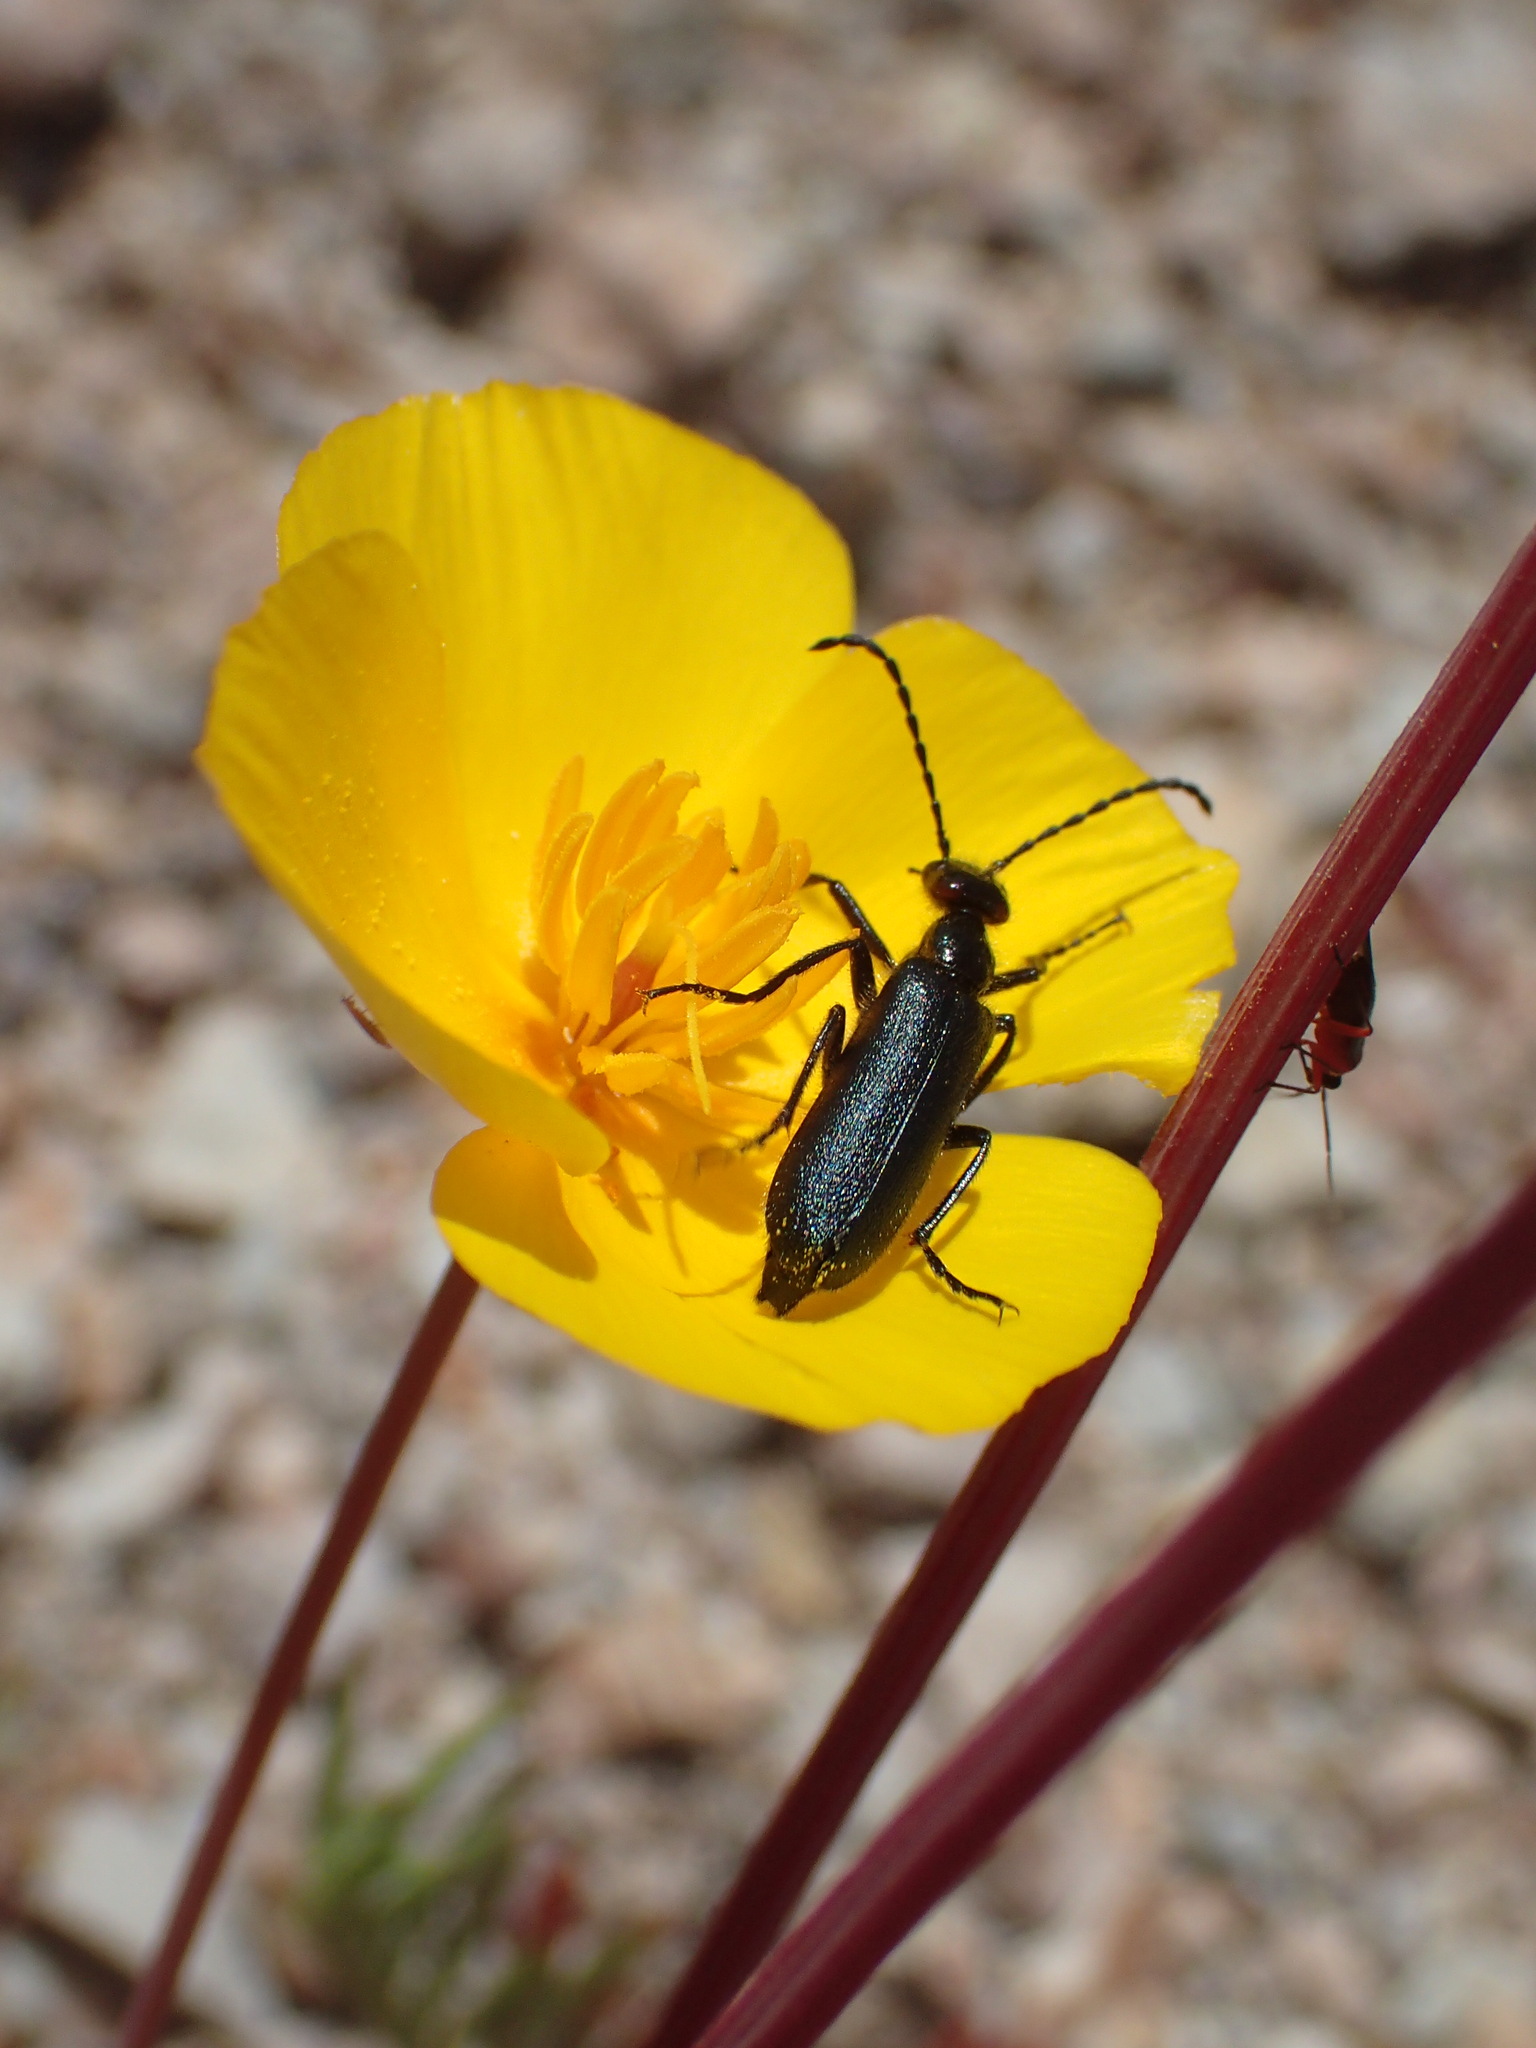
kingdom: Animalia
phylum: Arthropoda
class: Insecta
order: Coleoptera
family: Meloidae
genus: Lytta
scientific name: Lytta auriculata
